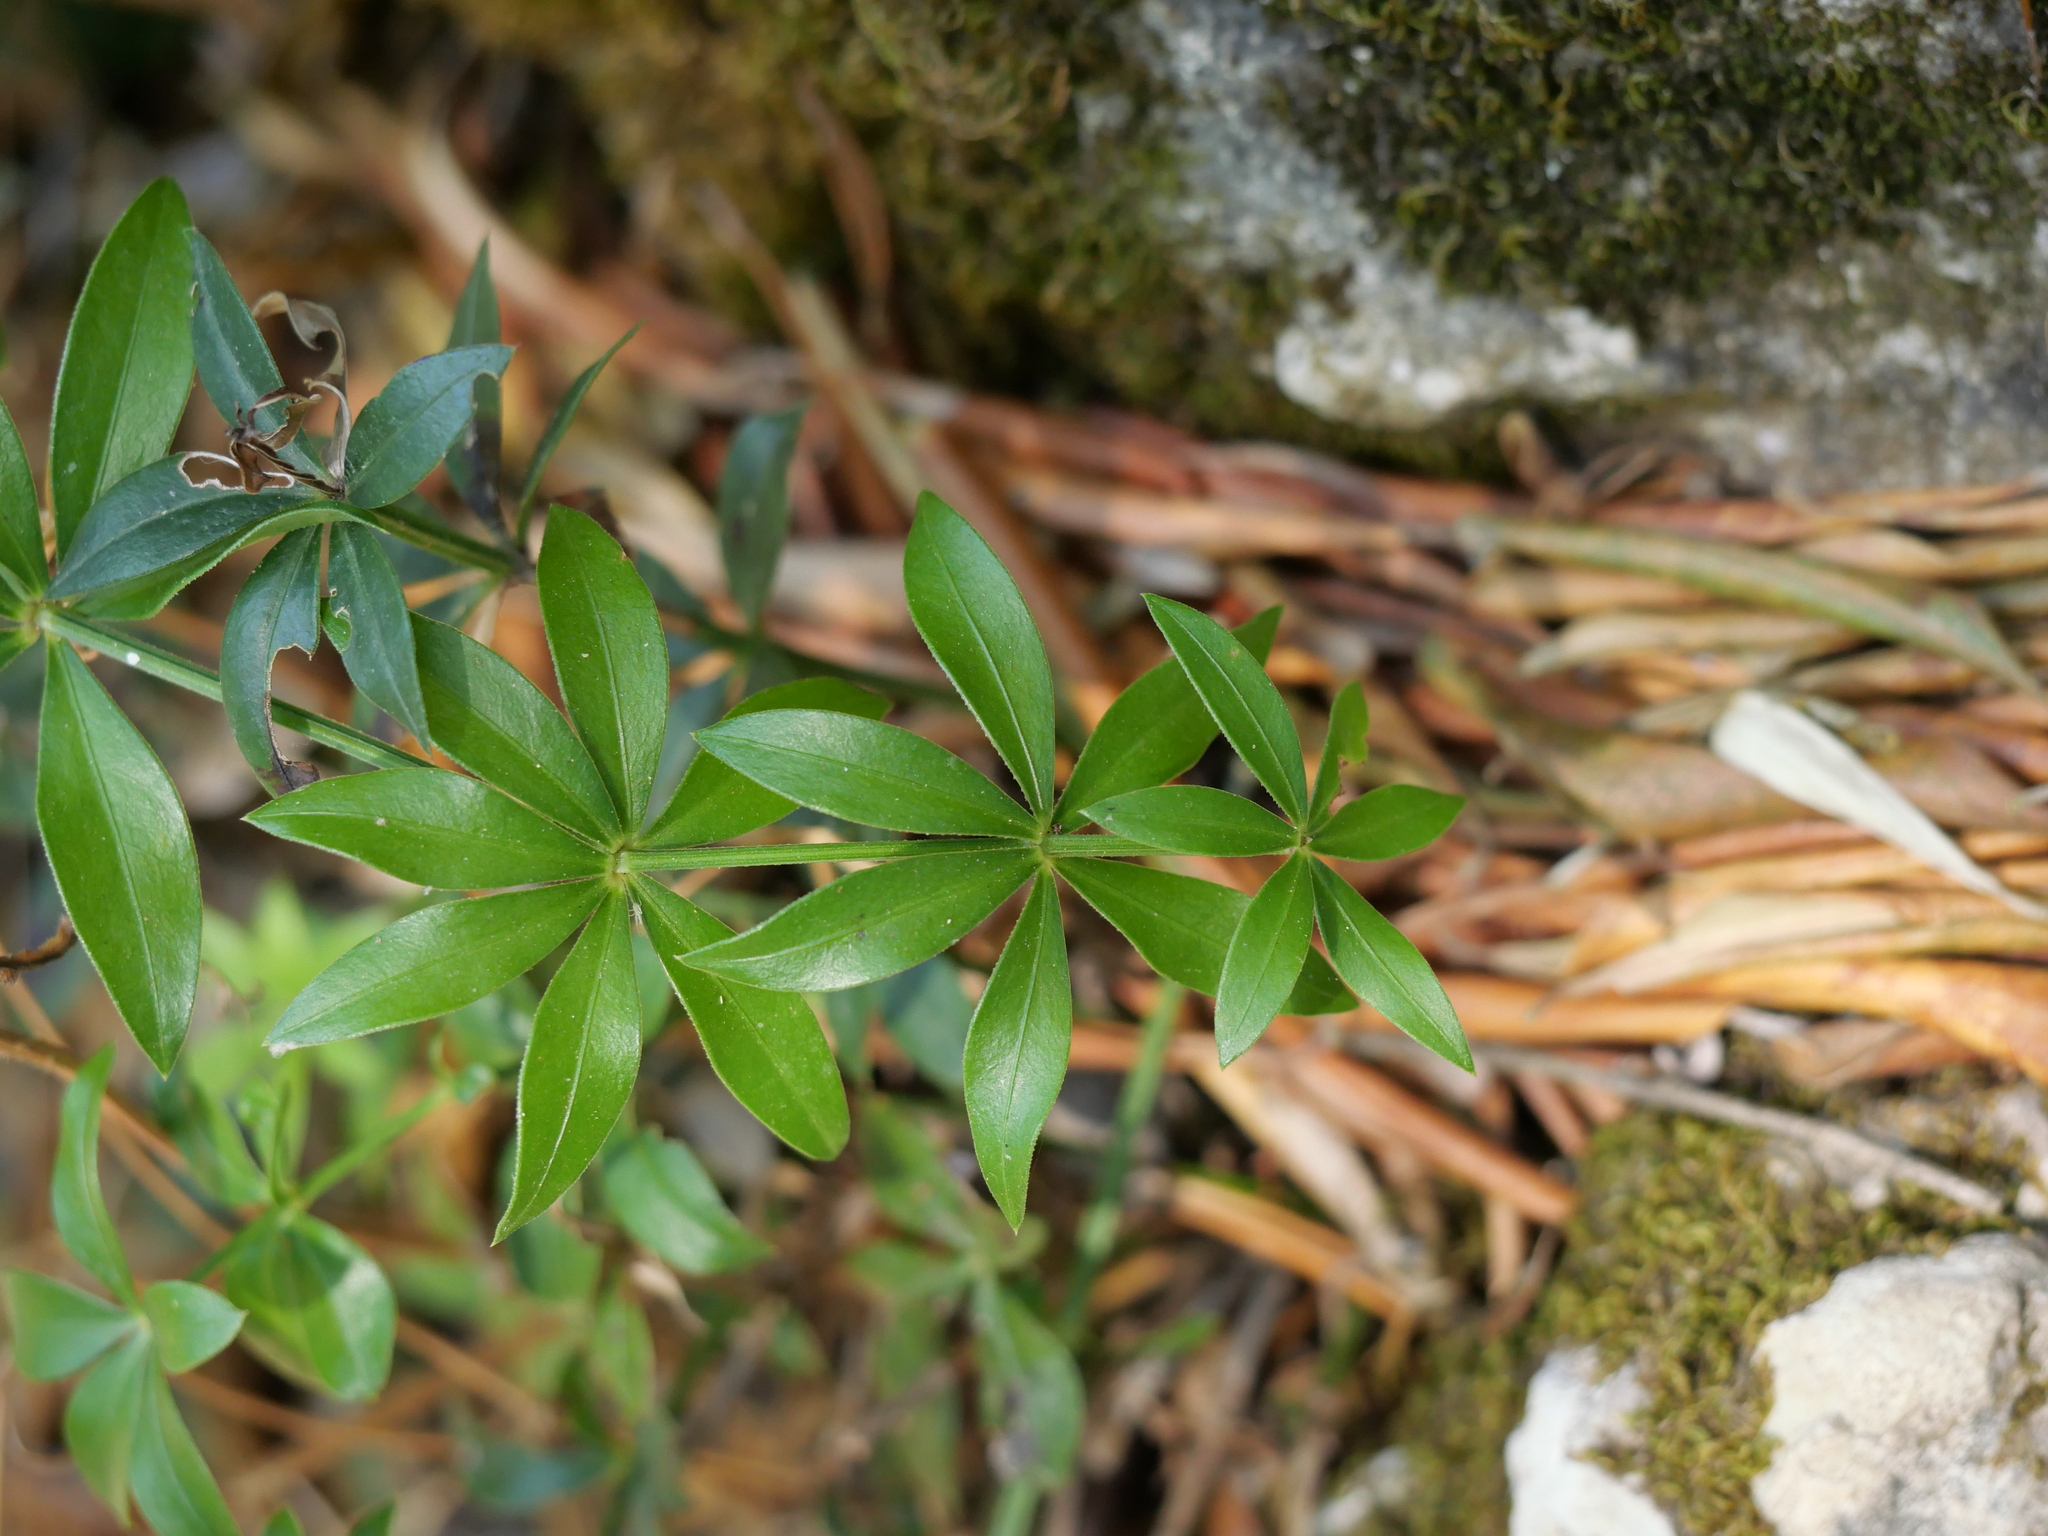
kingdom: Plantae
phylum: Tracheophyta
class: Magnoliopsida
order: Gentianales
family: Rubiaceae
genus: Rubia
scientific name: Rubia peregrina
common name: Wild madder
